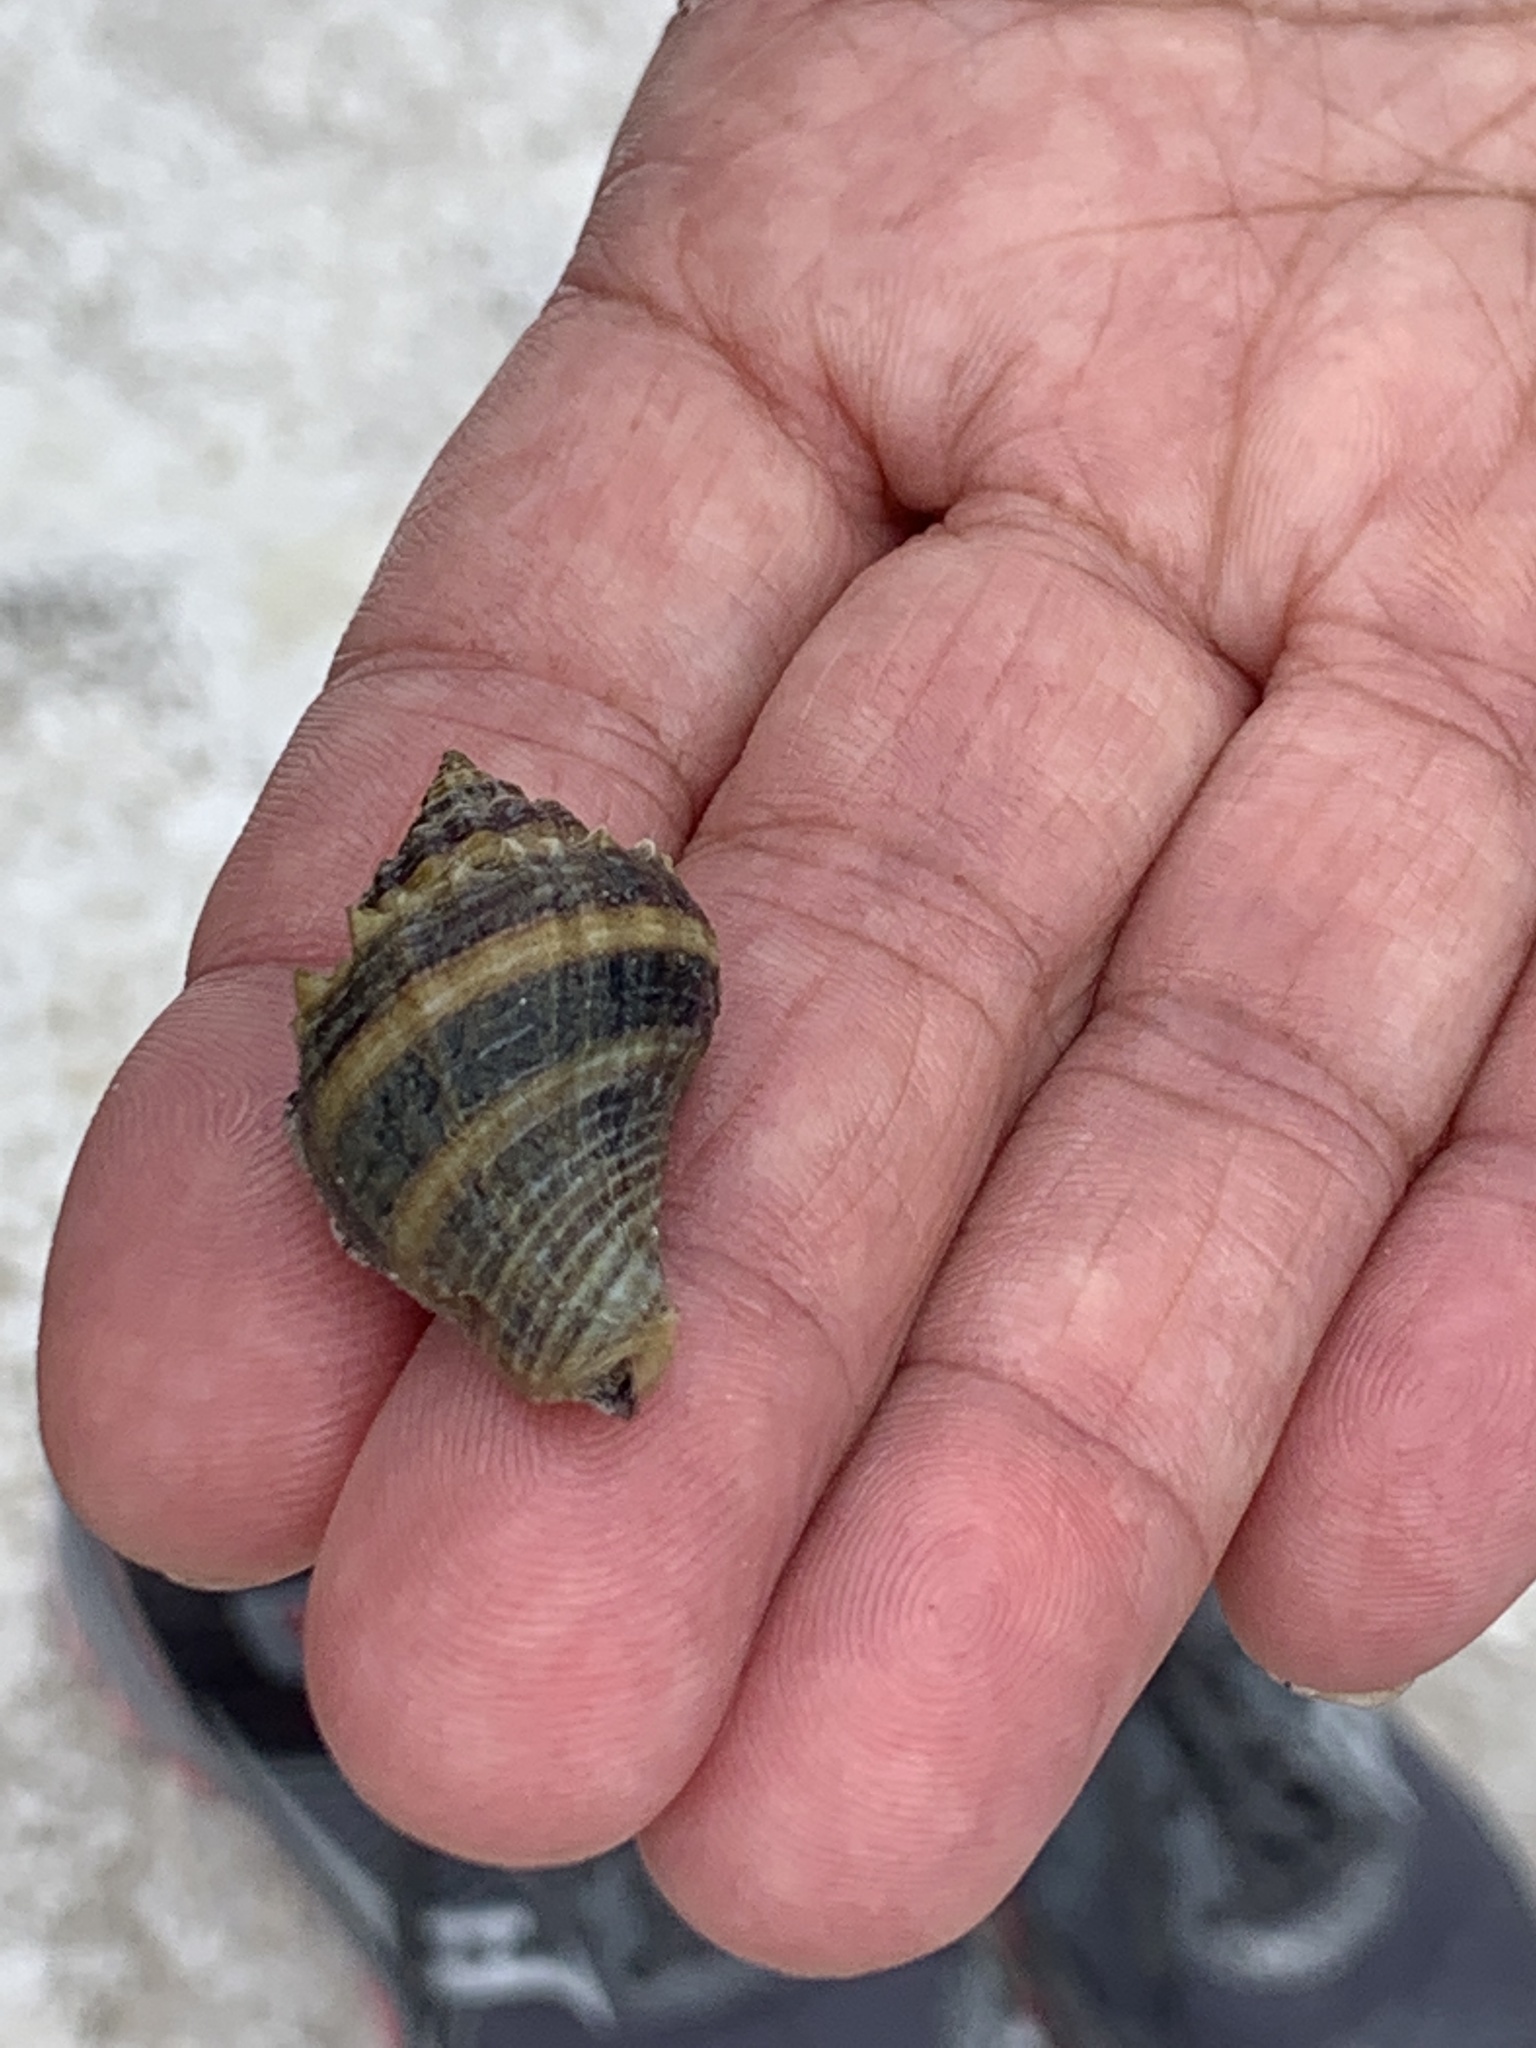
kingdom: Animalia
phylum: Mollusca
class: Gastropoda
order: Neogastropoda
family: Melongenidae
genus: Melongena
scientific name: Melongena corona
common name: American crown conch
